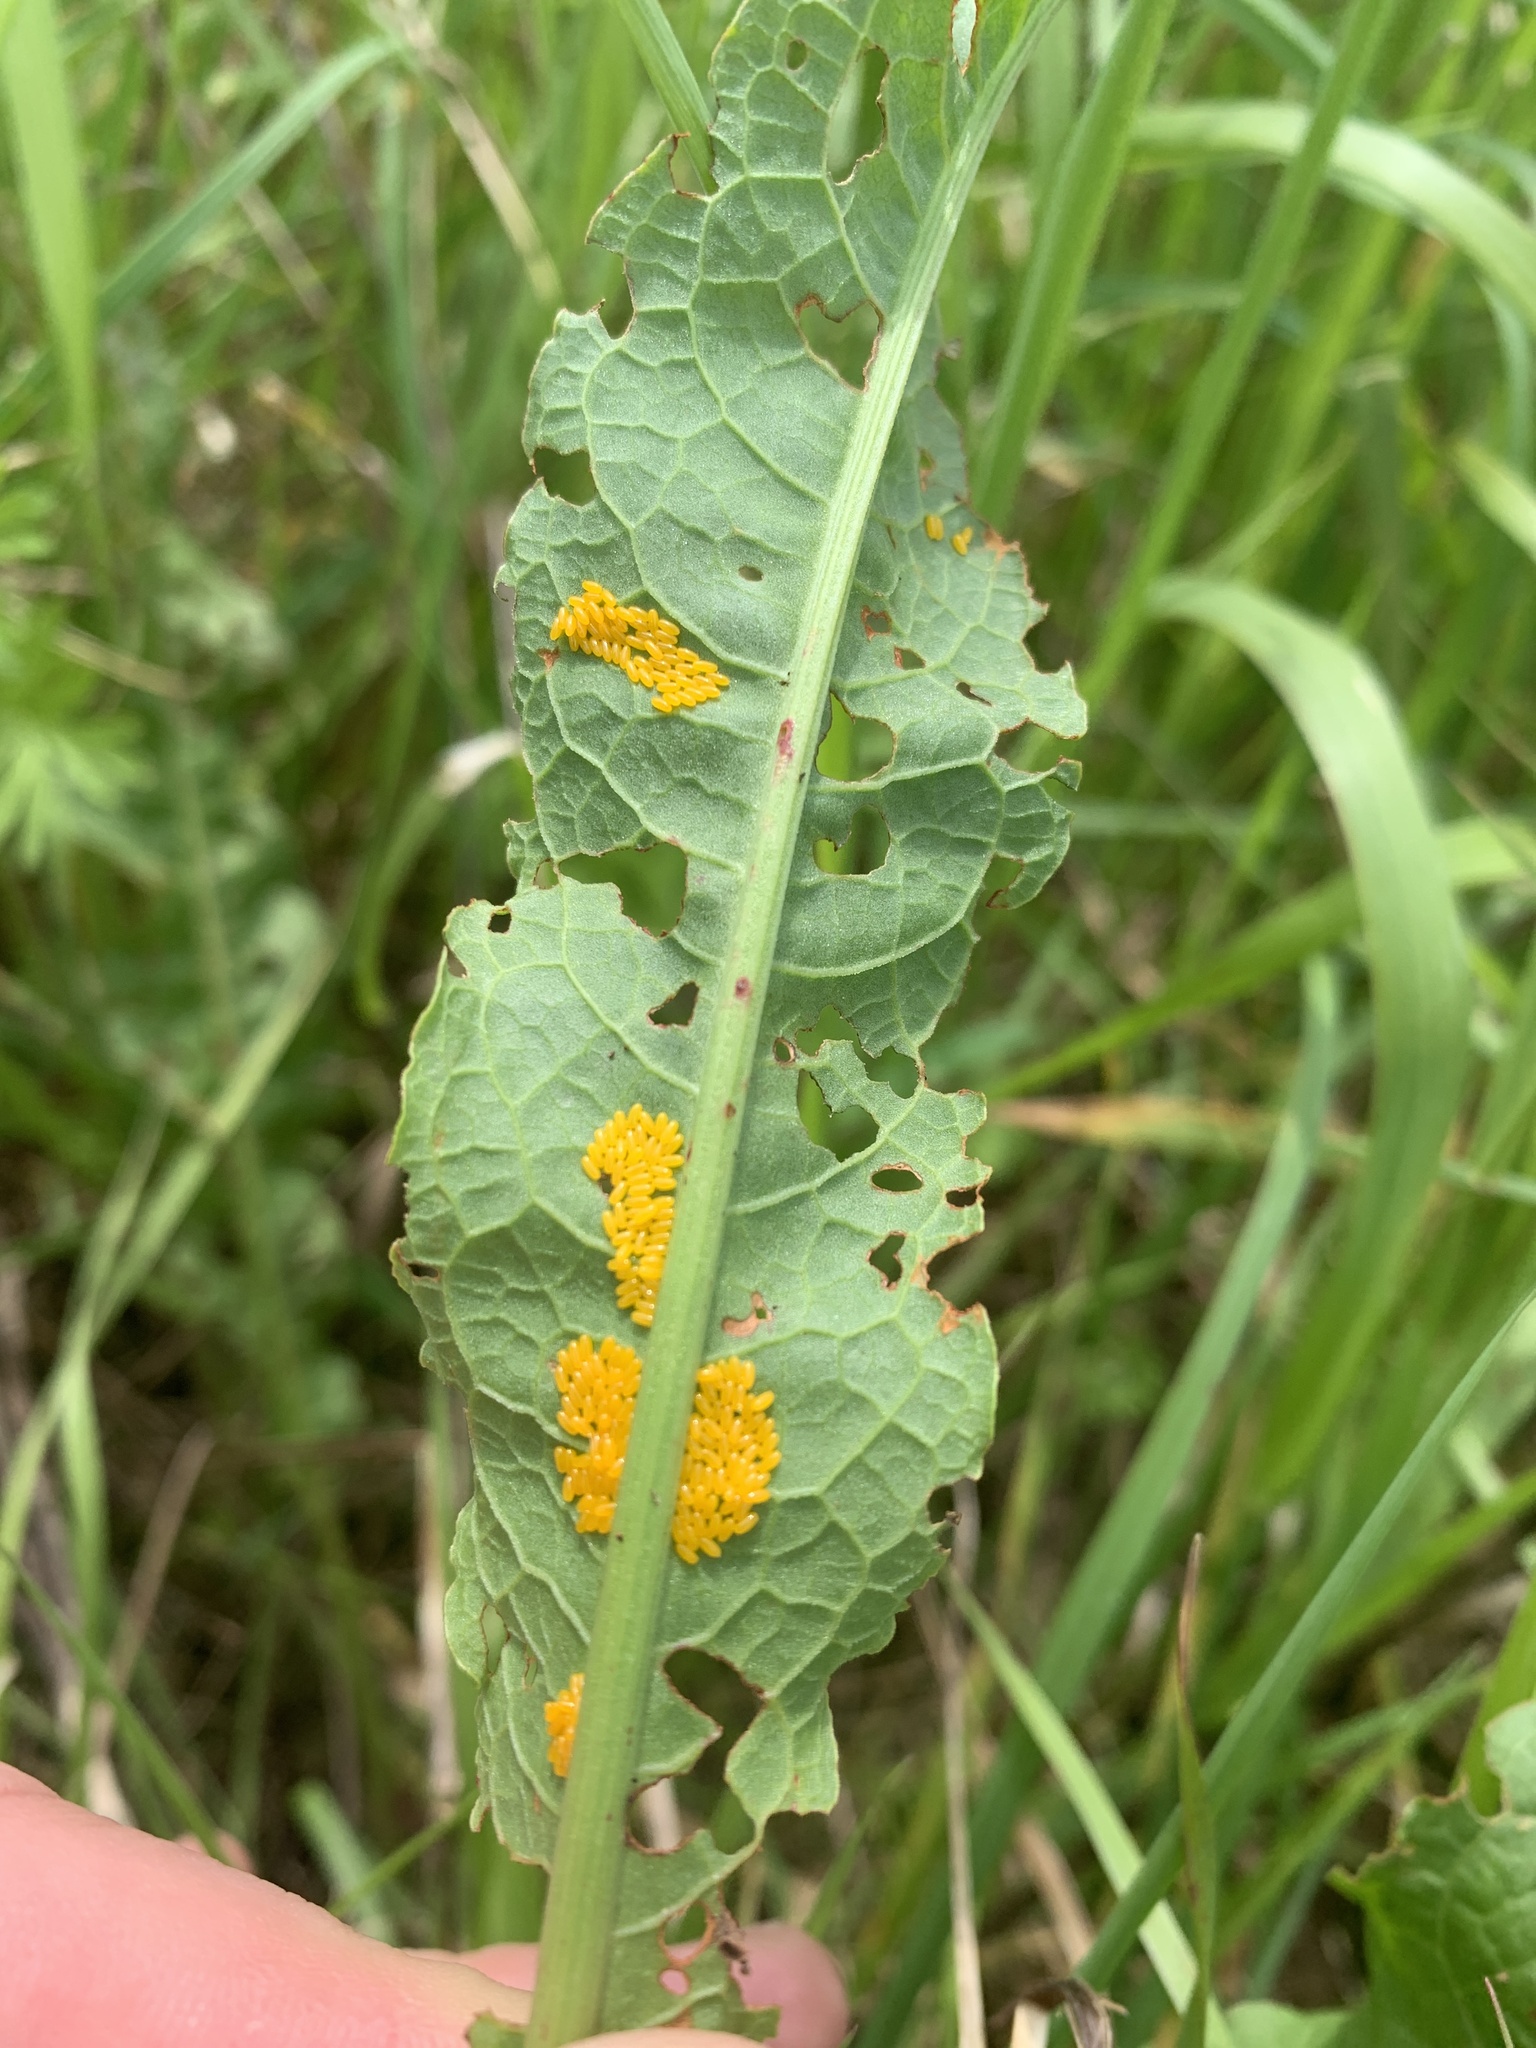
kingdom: Animalia
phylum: Arthropoda
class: Insecta
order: Coleoptera
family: Chrysomelidae
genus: Gastrophysa
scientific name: Gastrophysa viridula
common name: Green dock beetle
